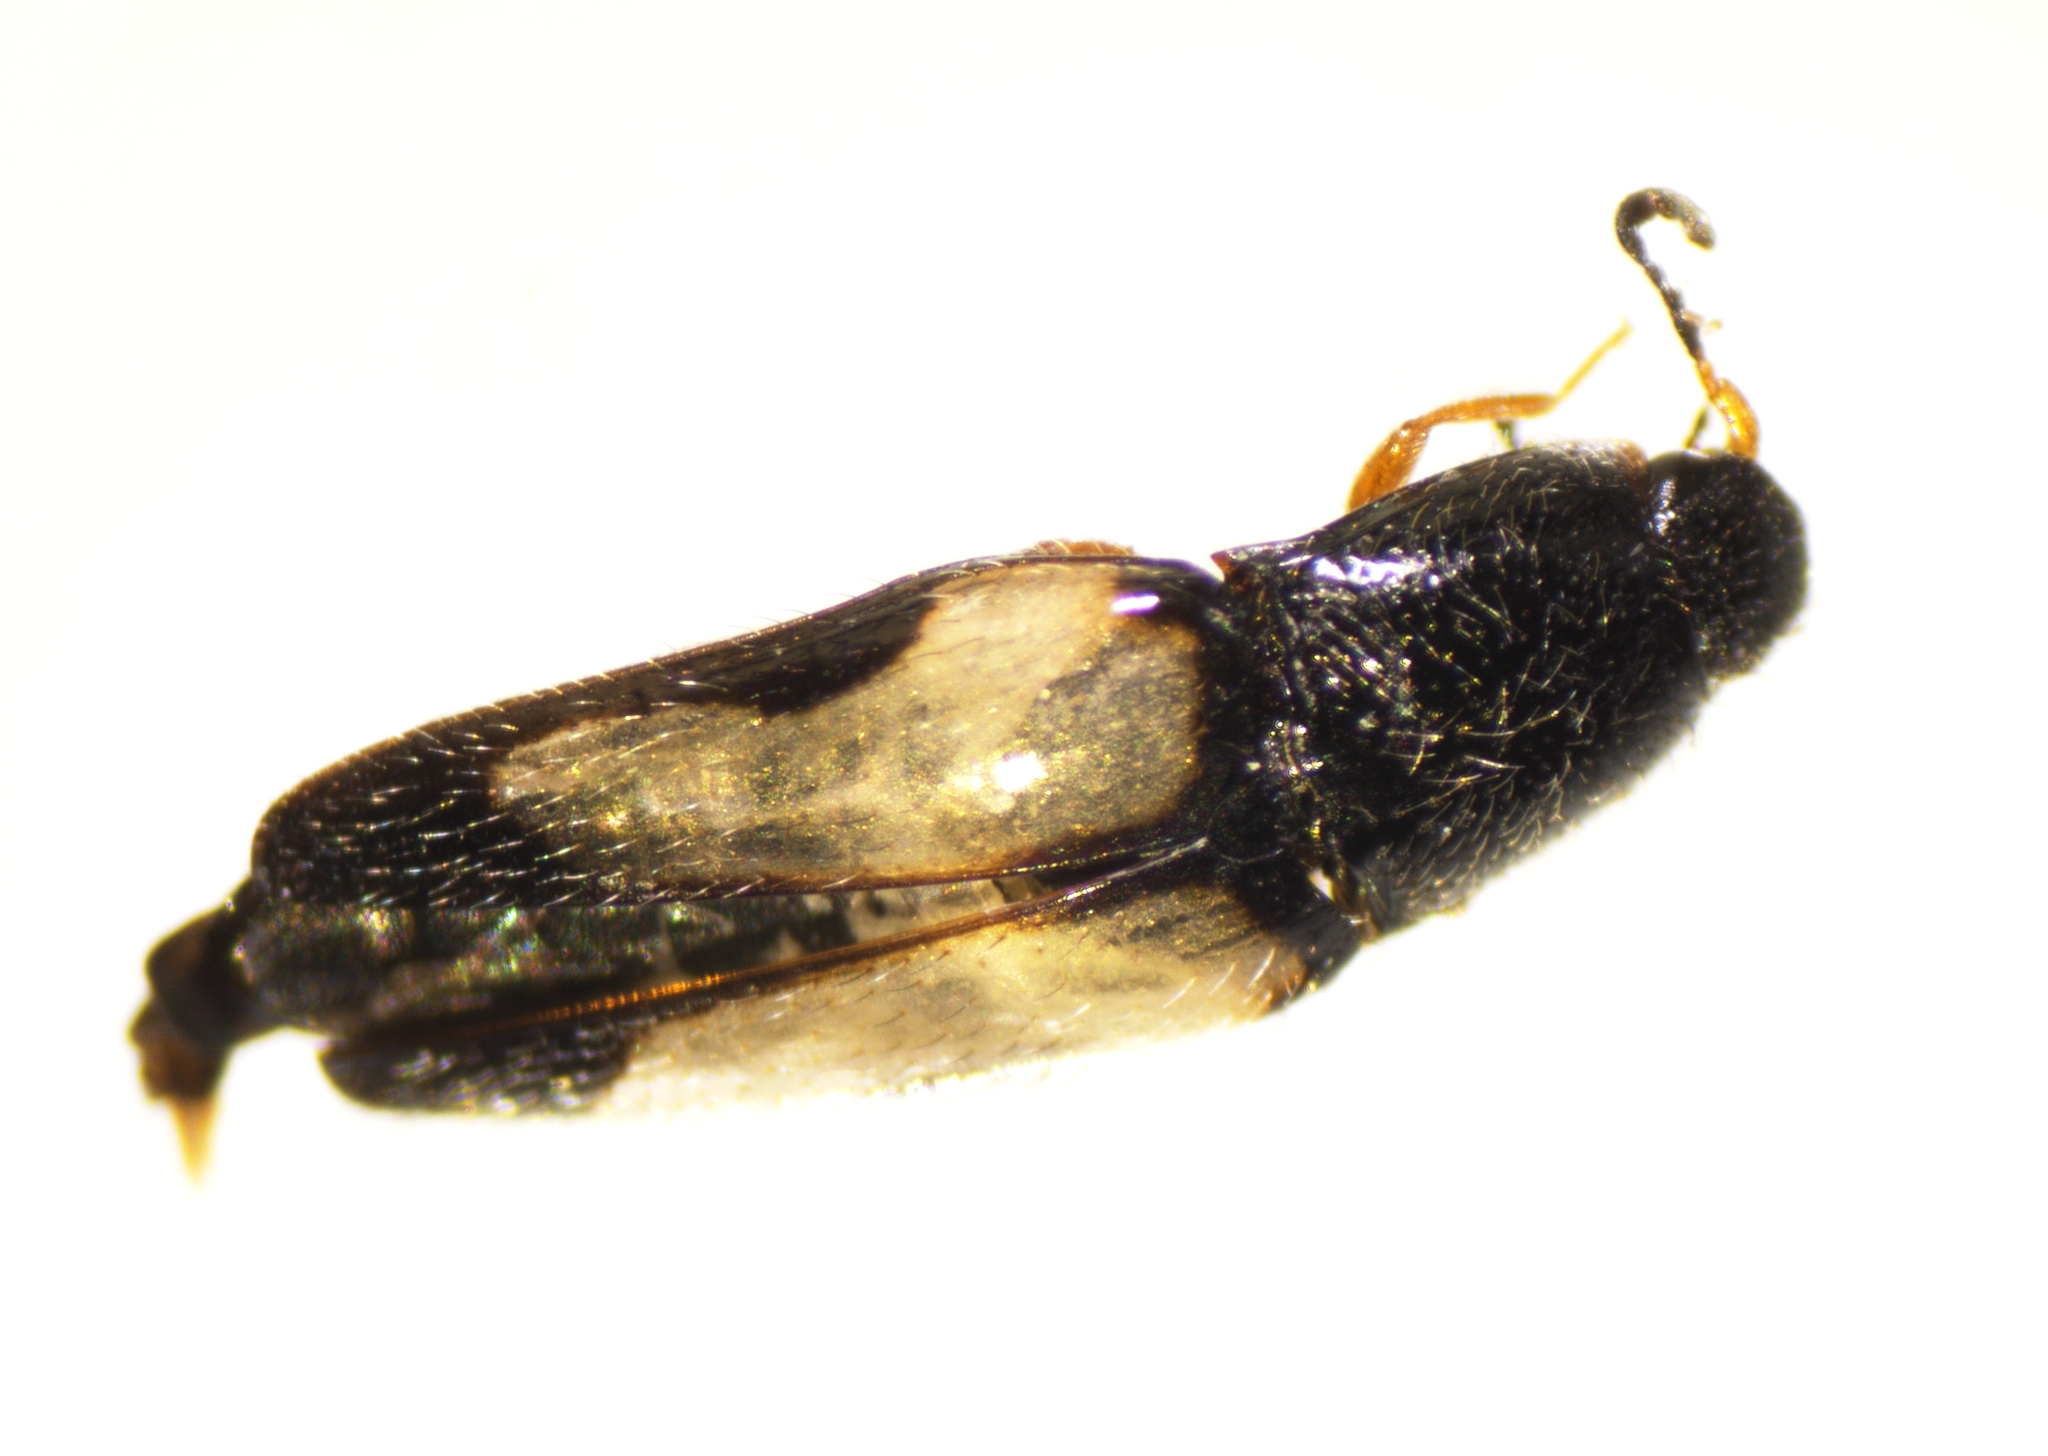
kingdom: Animalia
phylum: Arthropoda
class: Insecta
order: Coleoptera
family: Elateridae
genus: Drapetes
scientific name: Drapetes plagiatus
